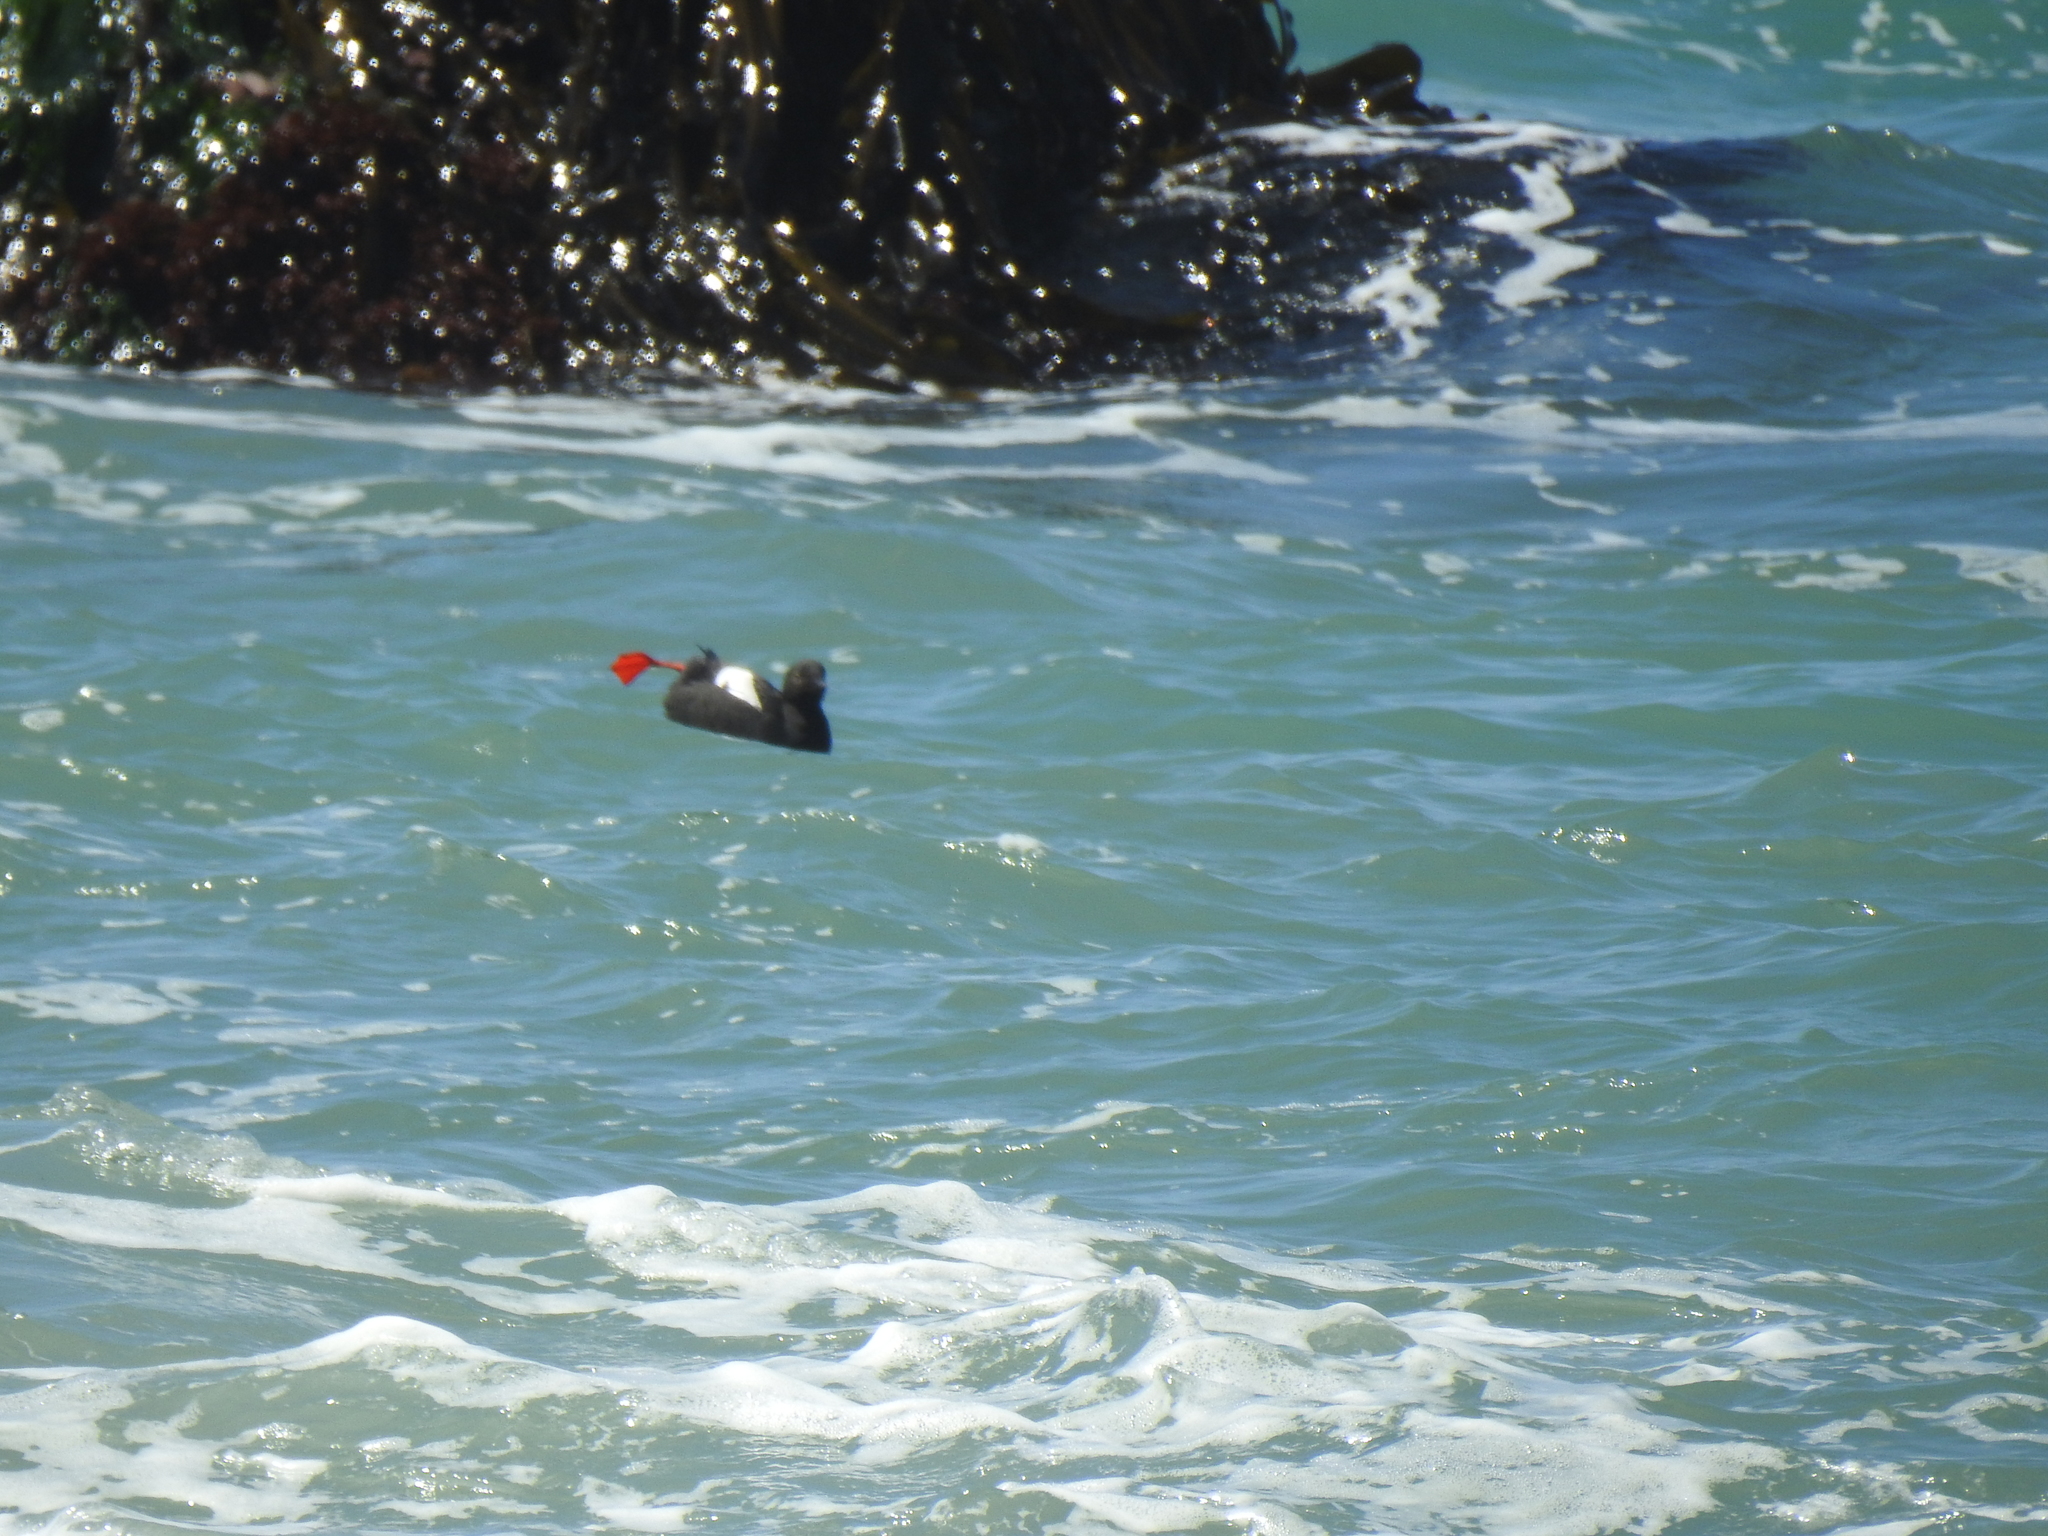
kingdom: Animalia
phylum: Chordata
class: Aves
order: Charadriiformes
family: Alcidae
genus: Cepphus
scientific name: Cepphus columba
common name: Pigeon guillemot
